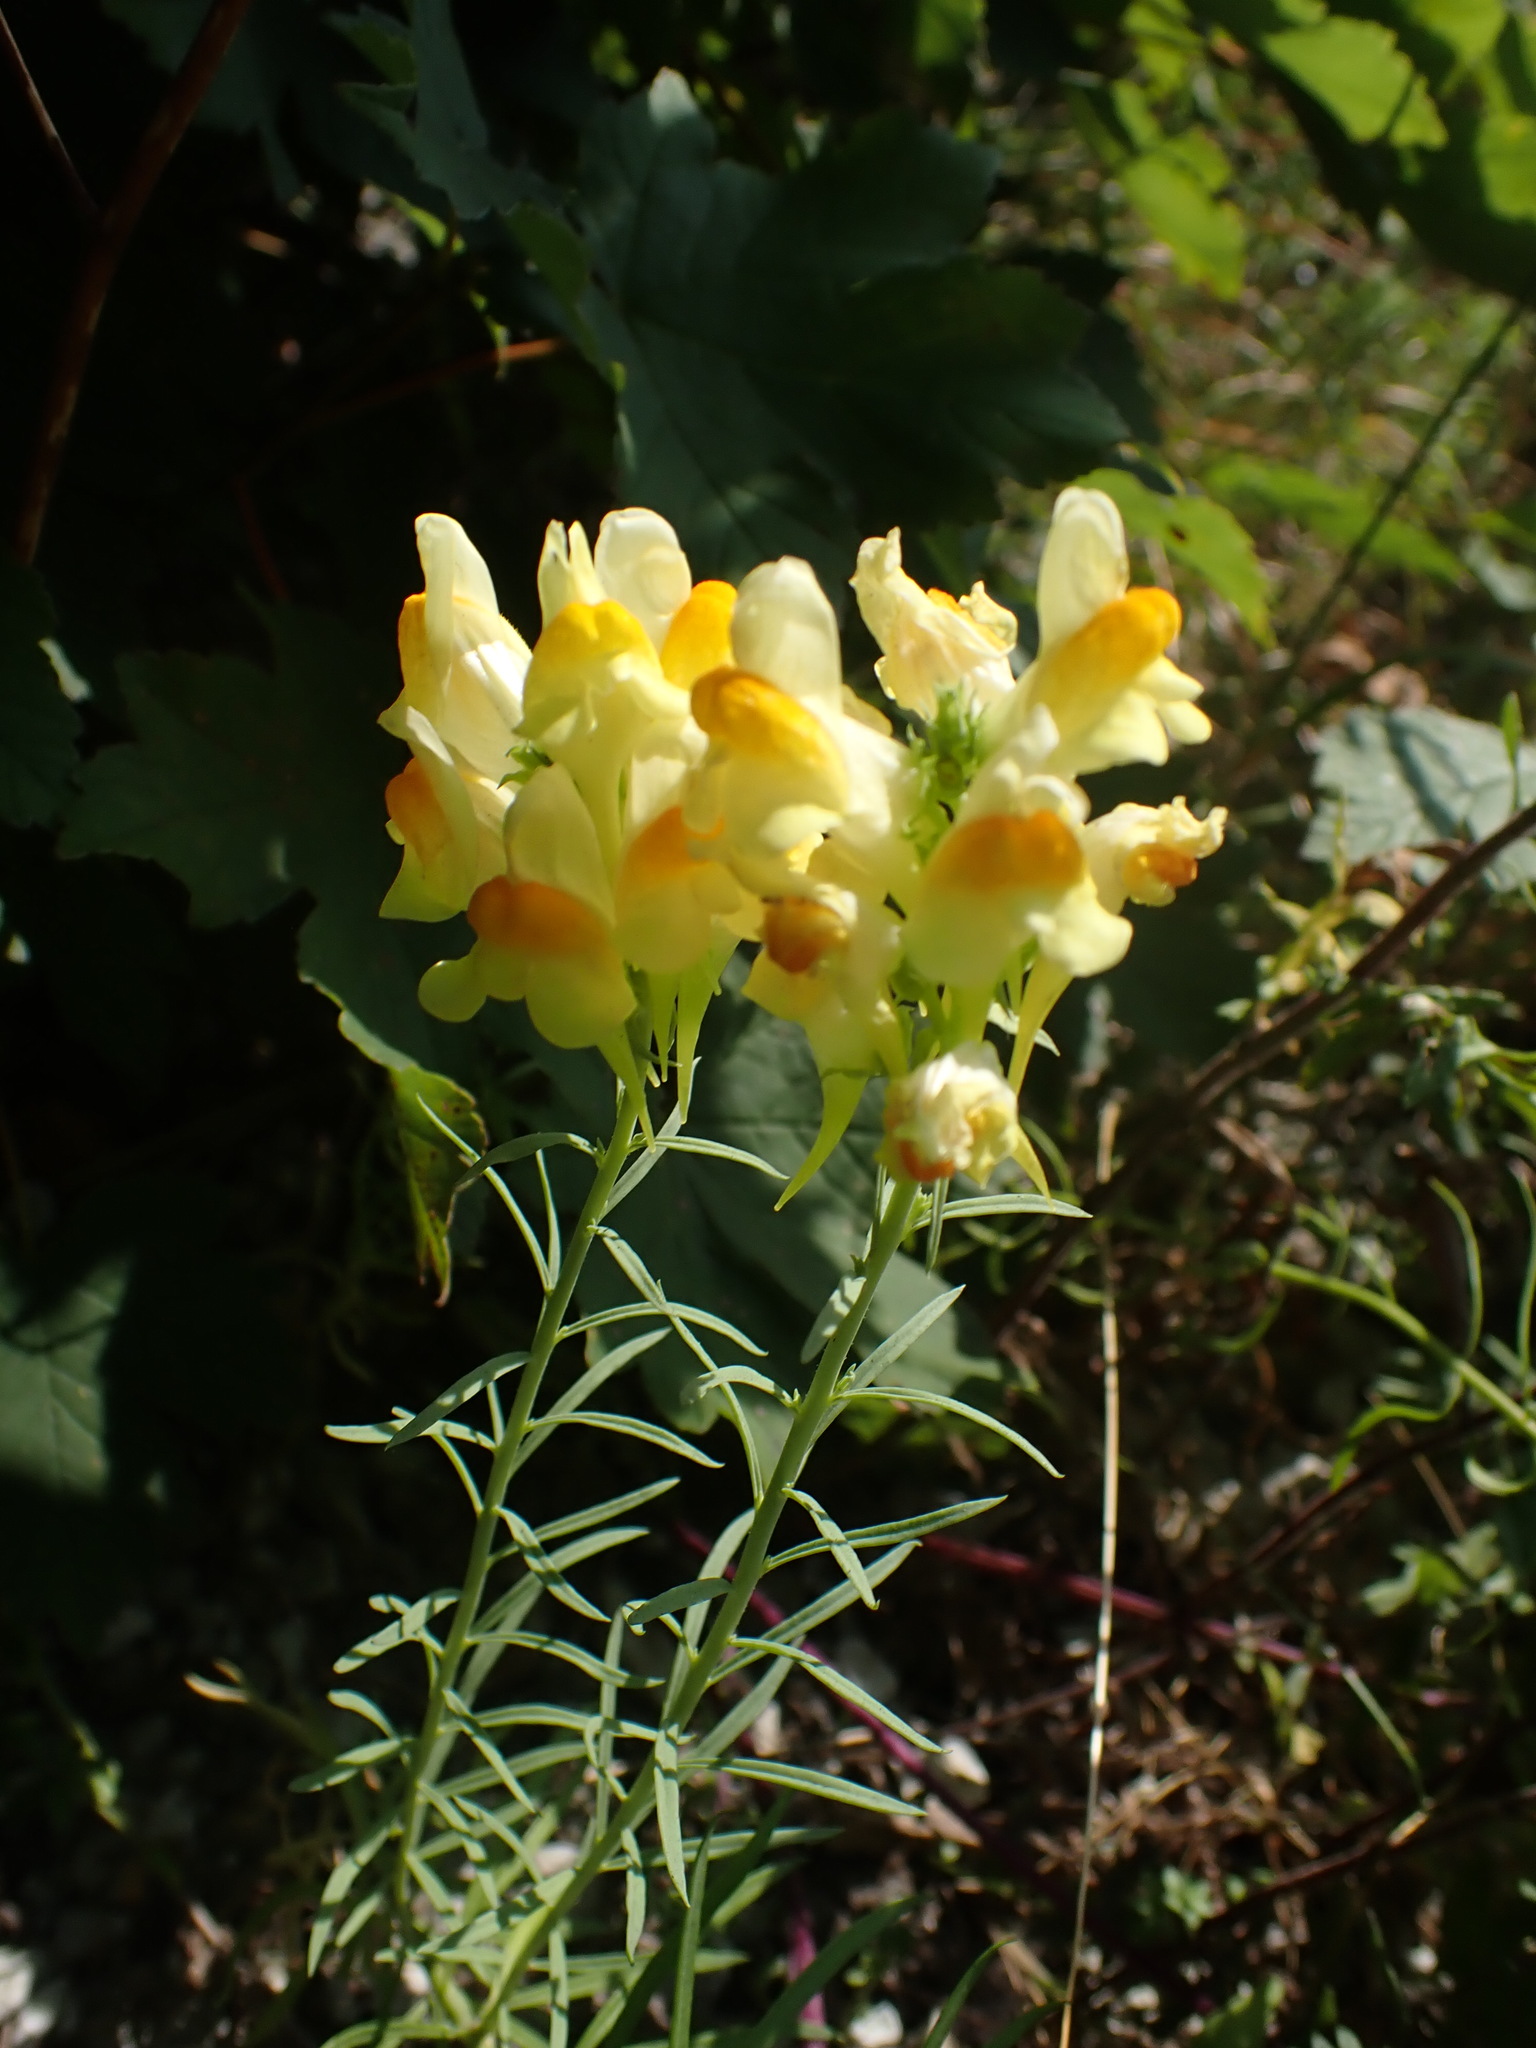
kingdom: Plantae
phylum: Tracheophyta
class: Magnoliopsida
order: Lamiales
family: Plantaginaceae
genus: Linaria
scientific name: Linaria vulgaris
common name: Butter and eggs
